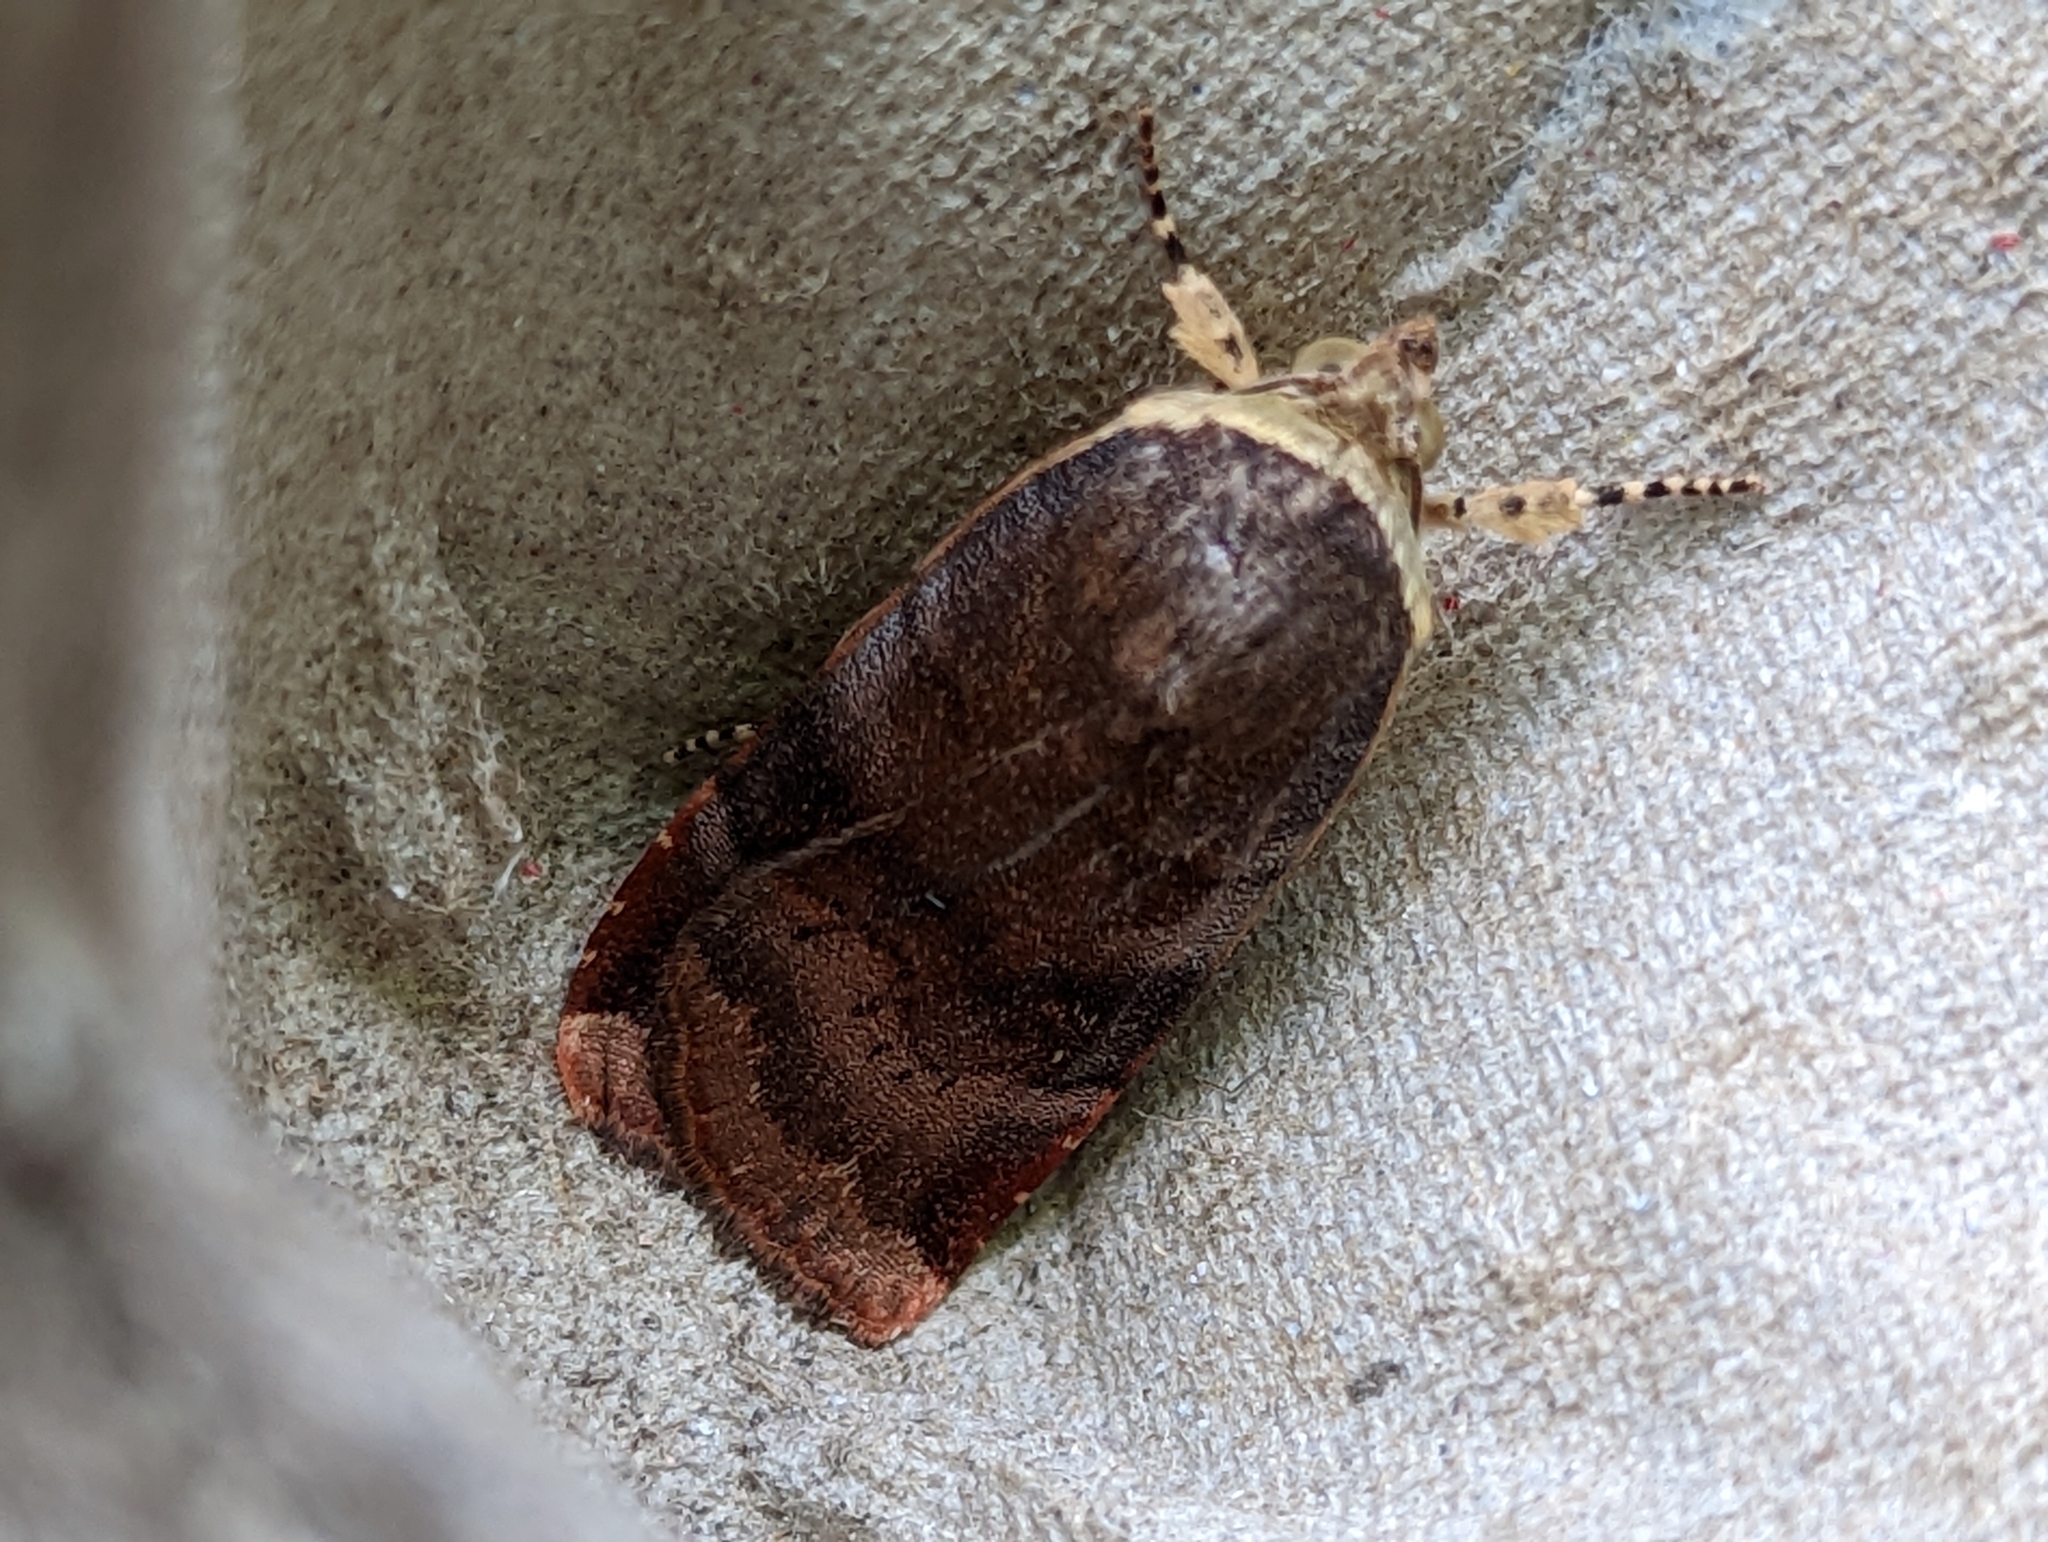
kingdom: Animalia
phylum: Arthropoda
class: Insecta
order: Lepidoptera
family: Noctuidae
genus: Noctua
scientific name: Noctua janthe
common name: Lesser broad-bordered yellow underwing
